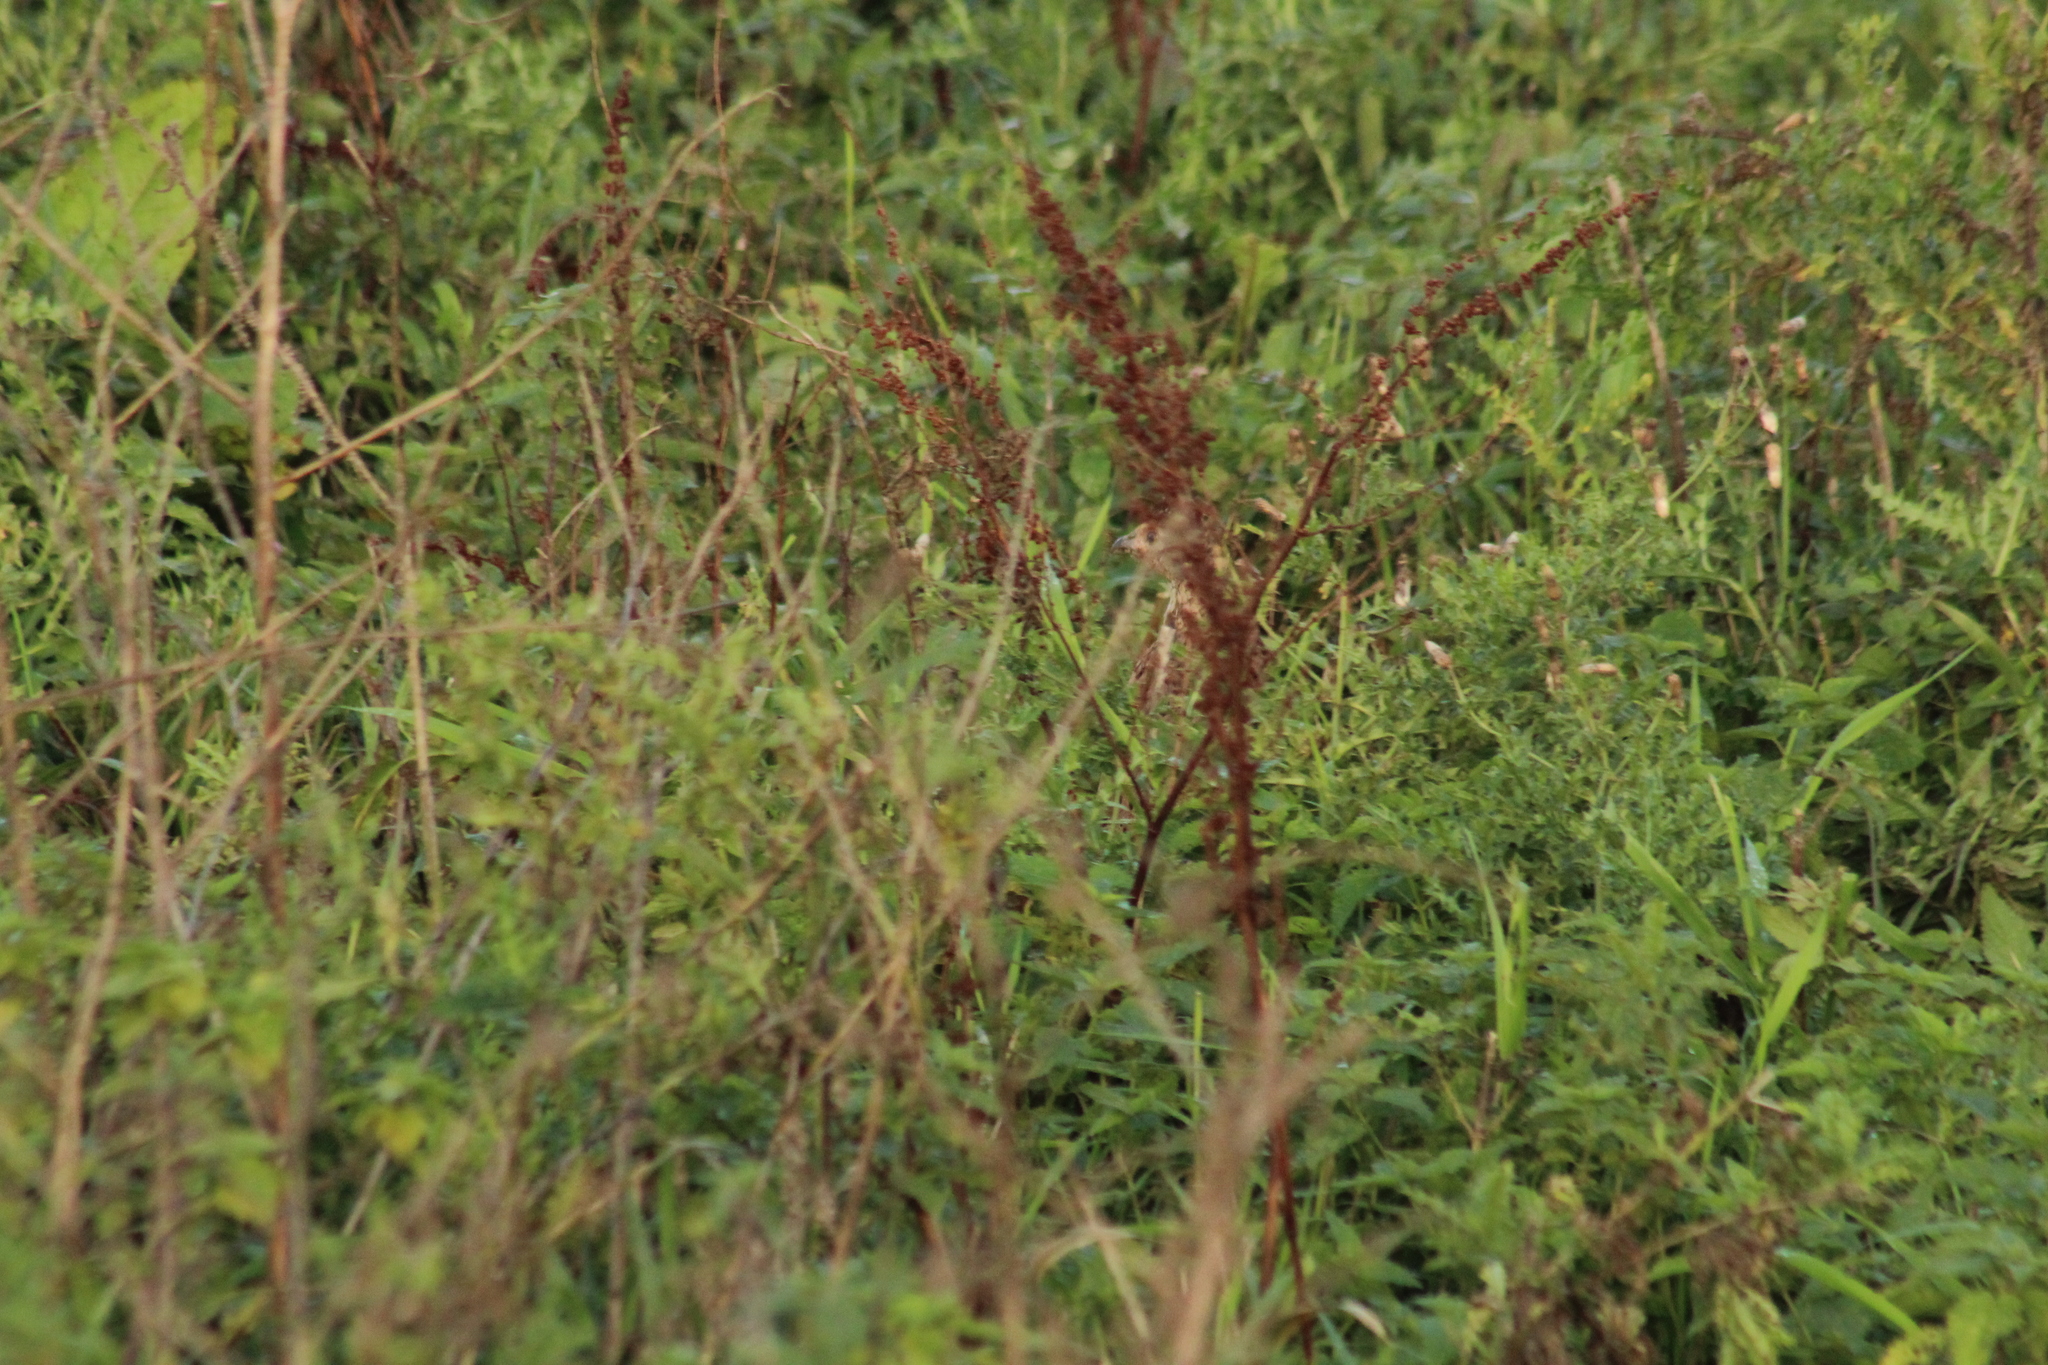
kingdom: Animalia
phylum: Chordata
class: Aves
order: Galliformes
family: Phasianidae
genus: Phasianus
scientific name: Phasianus colchicus
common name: Common pheasant
